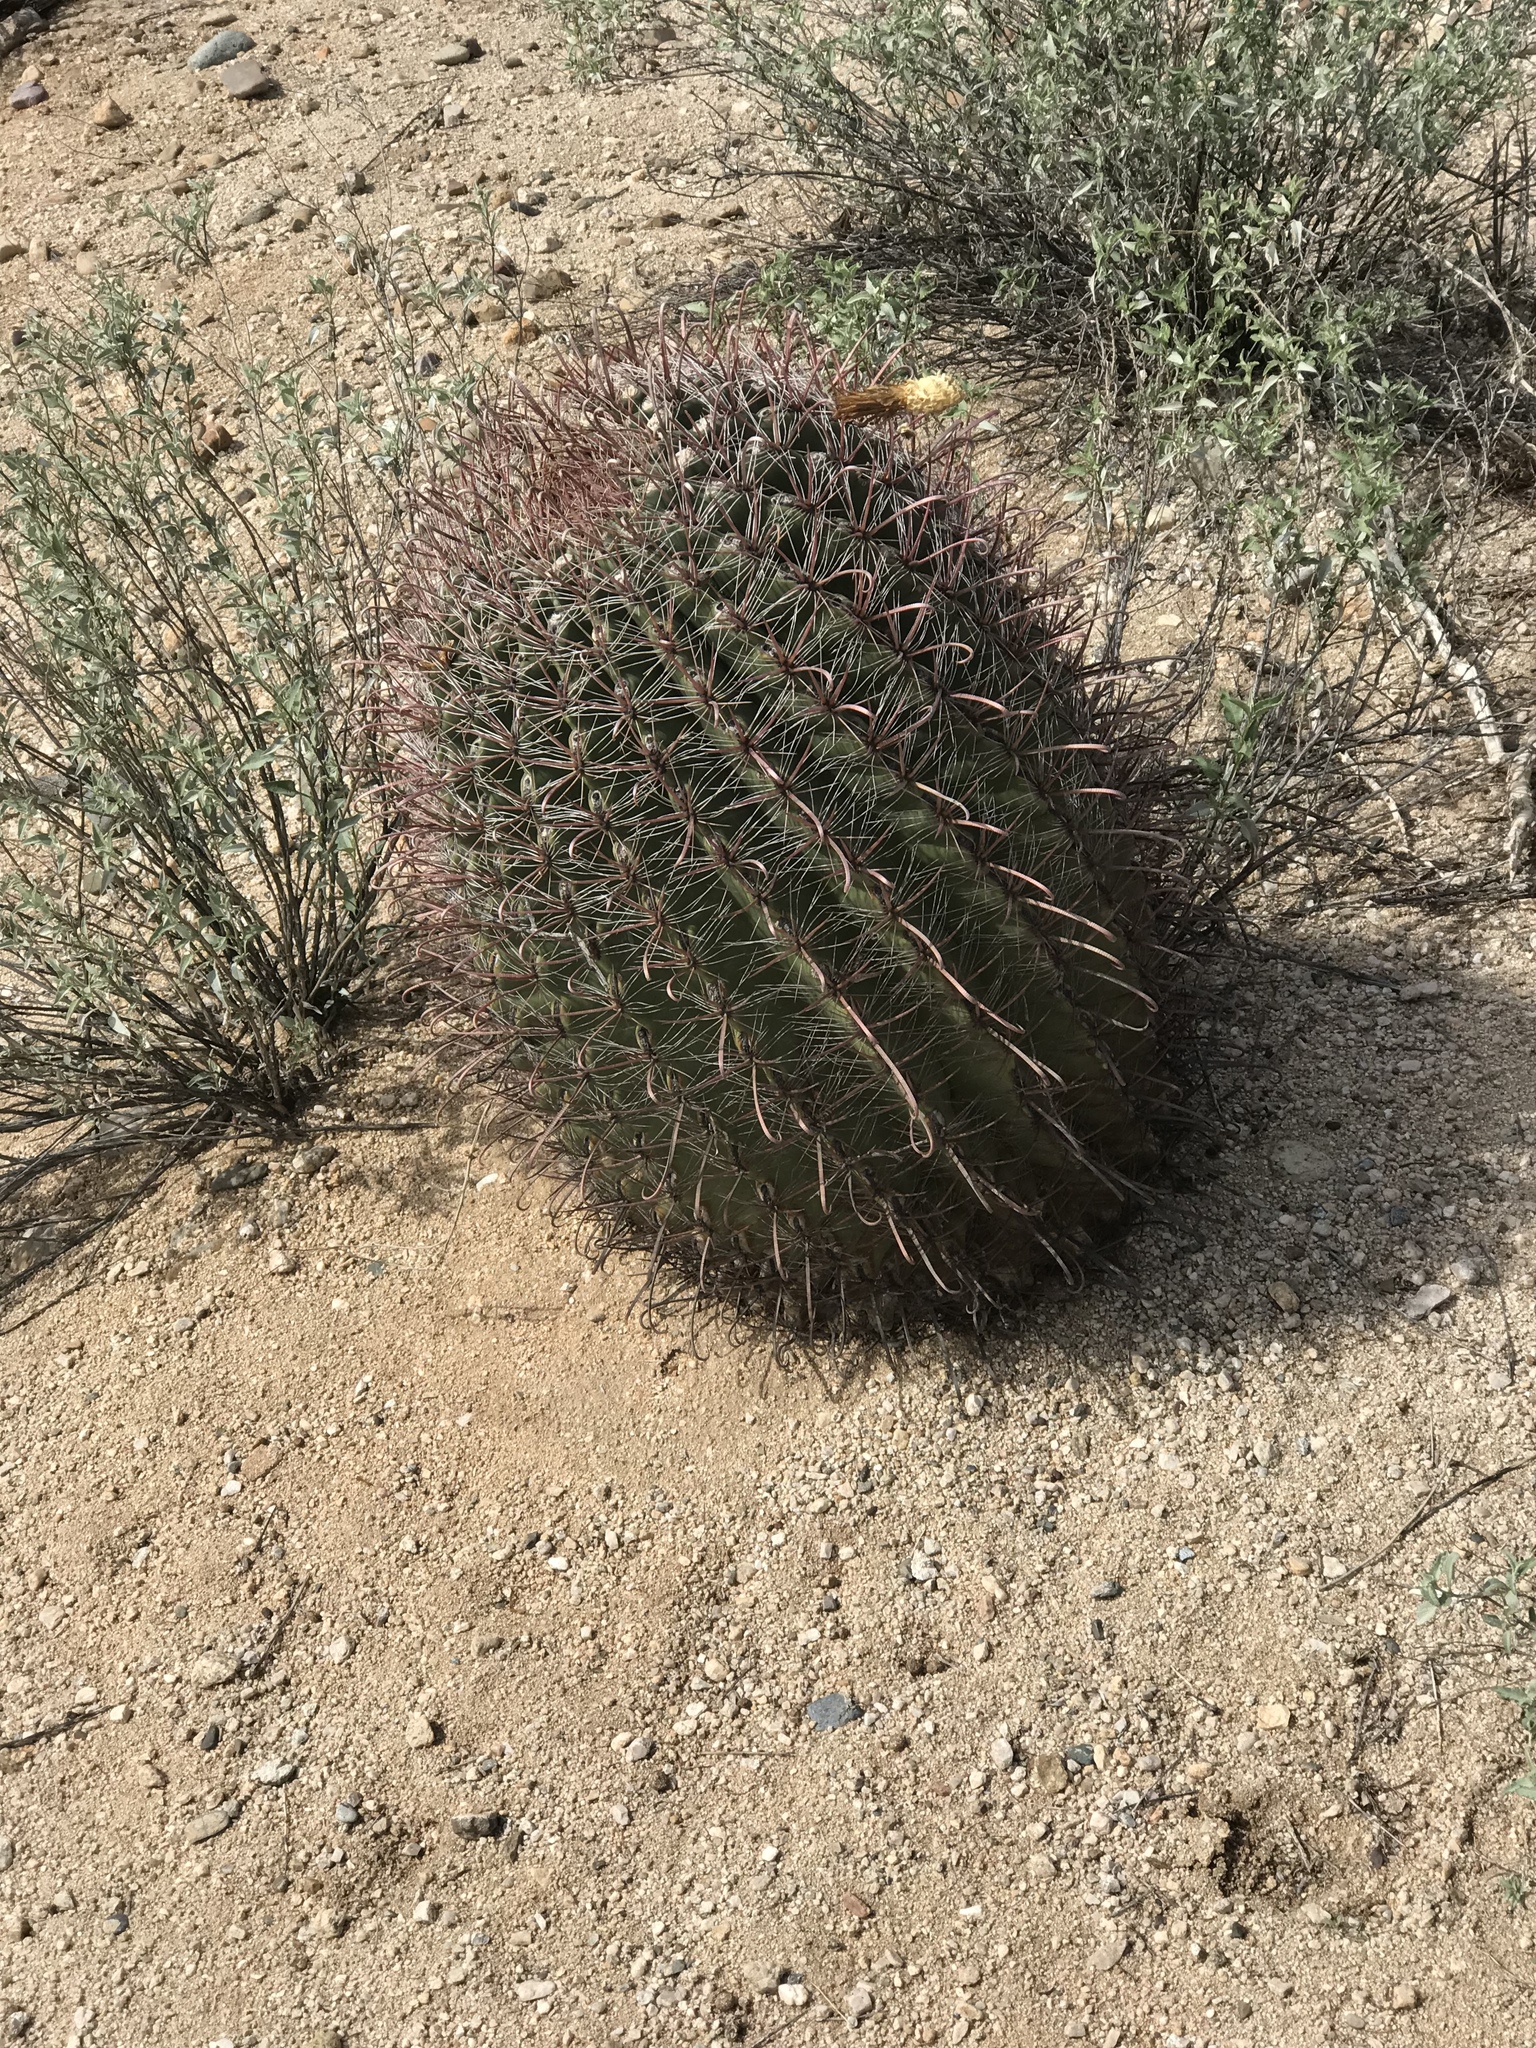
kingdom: Plantae
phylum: Tracheophyta
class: Magnoliopsida
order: Caryophyllales
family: Cactaceae
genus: Ferocactus
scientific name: Ferocactus wislizeni
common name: Candy barrel cactus
